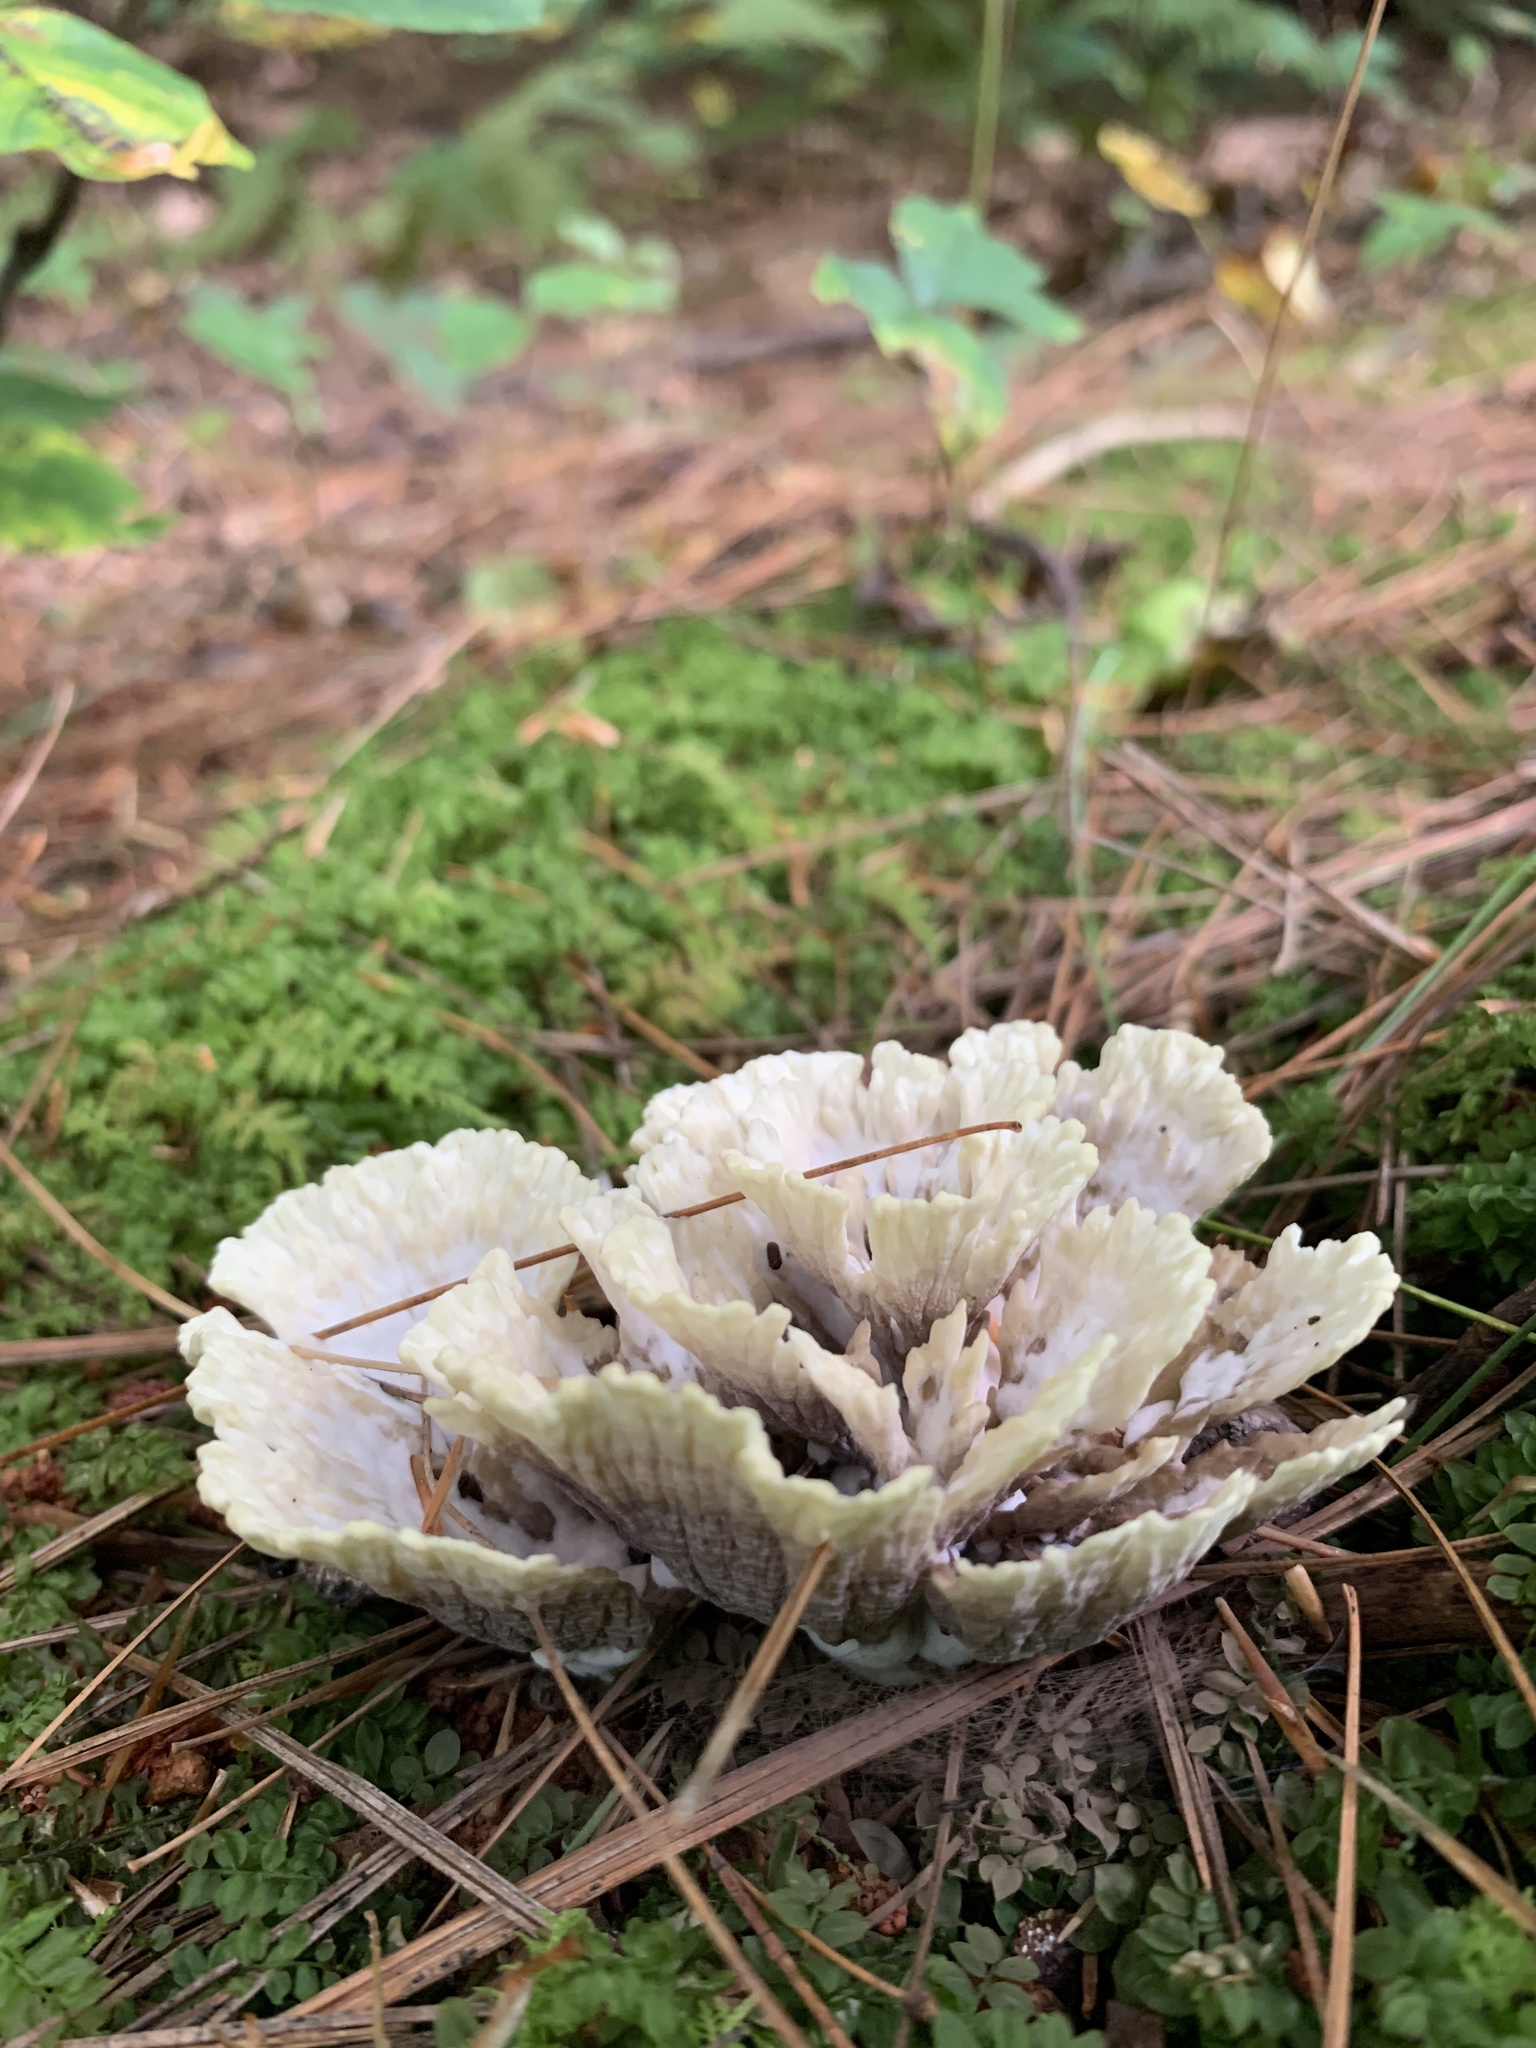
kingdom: Fungi
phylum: Basidiomycota
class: Agaricomycetes
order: Thelephorales
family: Thelephoraceae
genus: Thelephora
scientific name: Thelephora vialis
